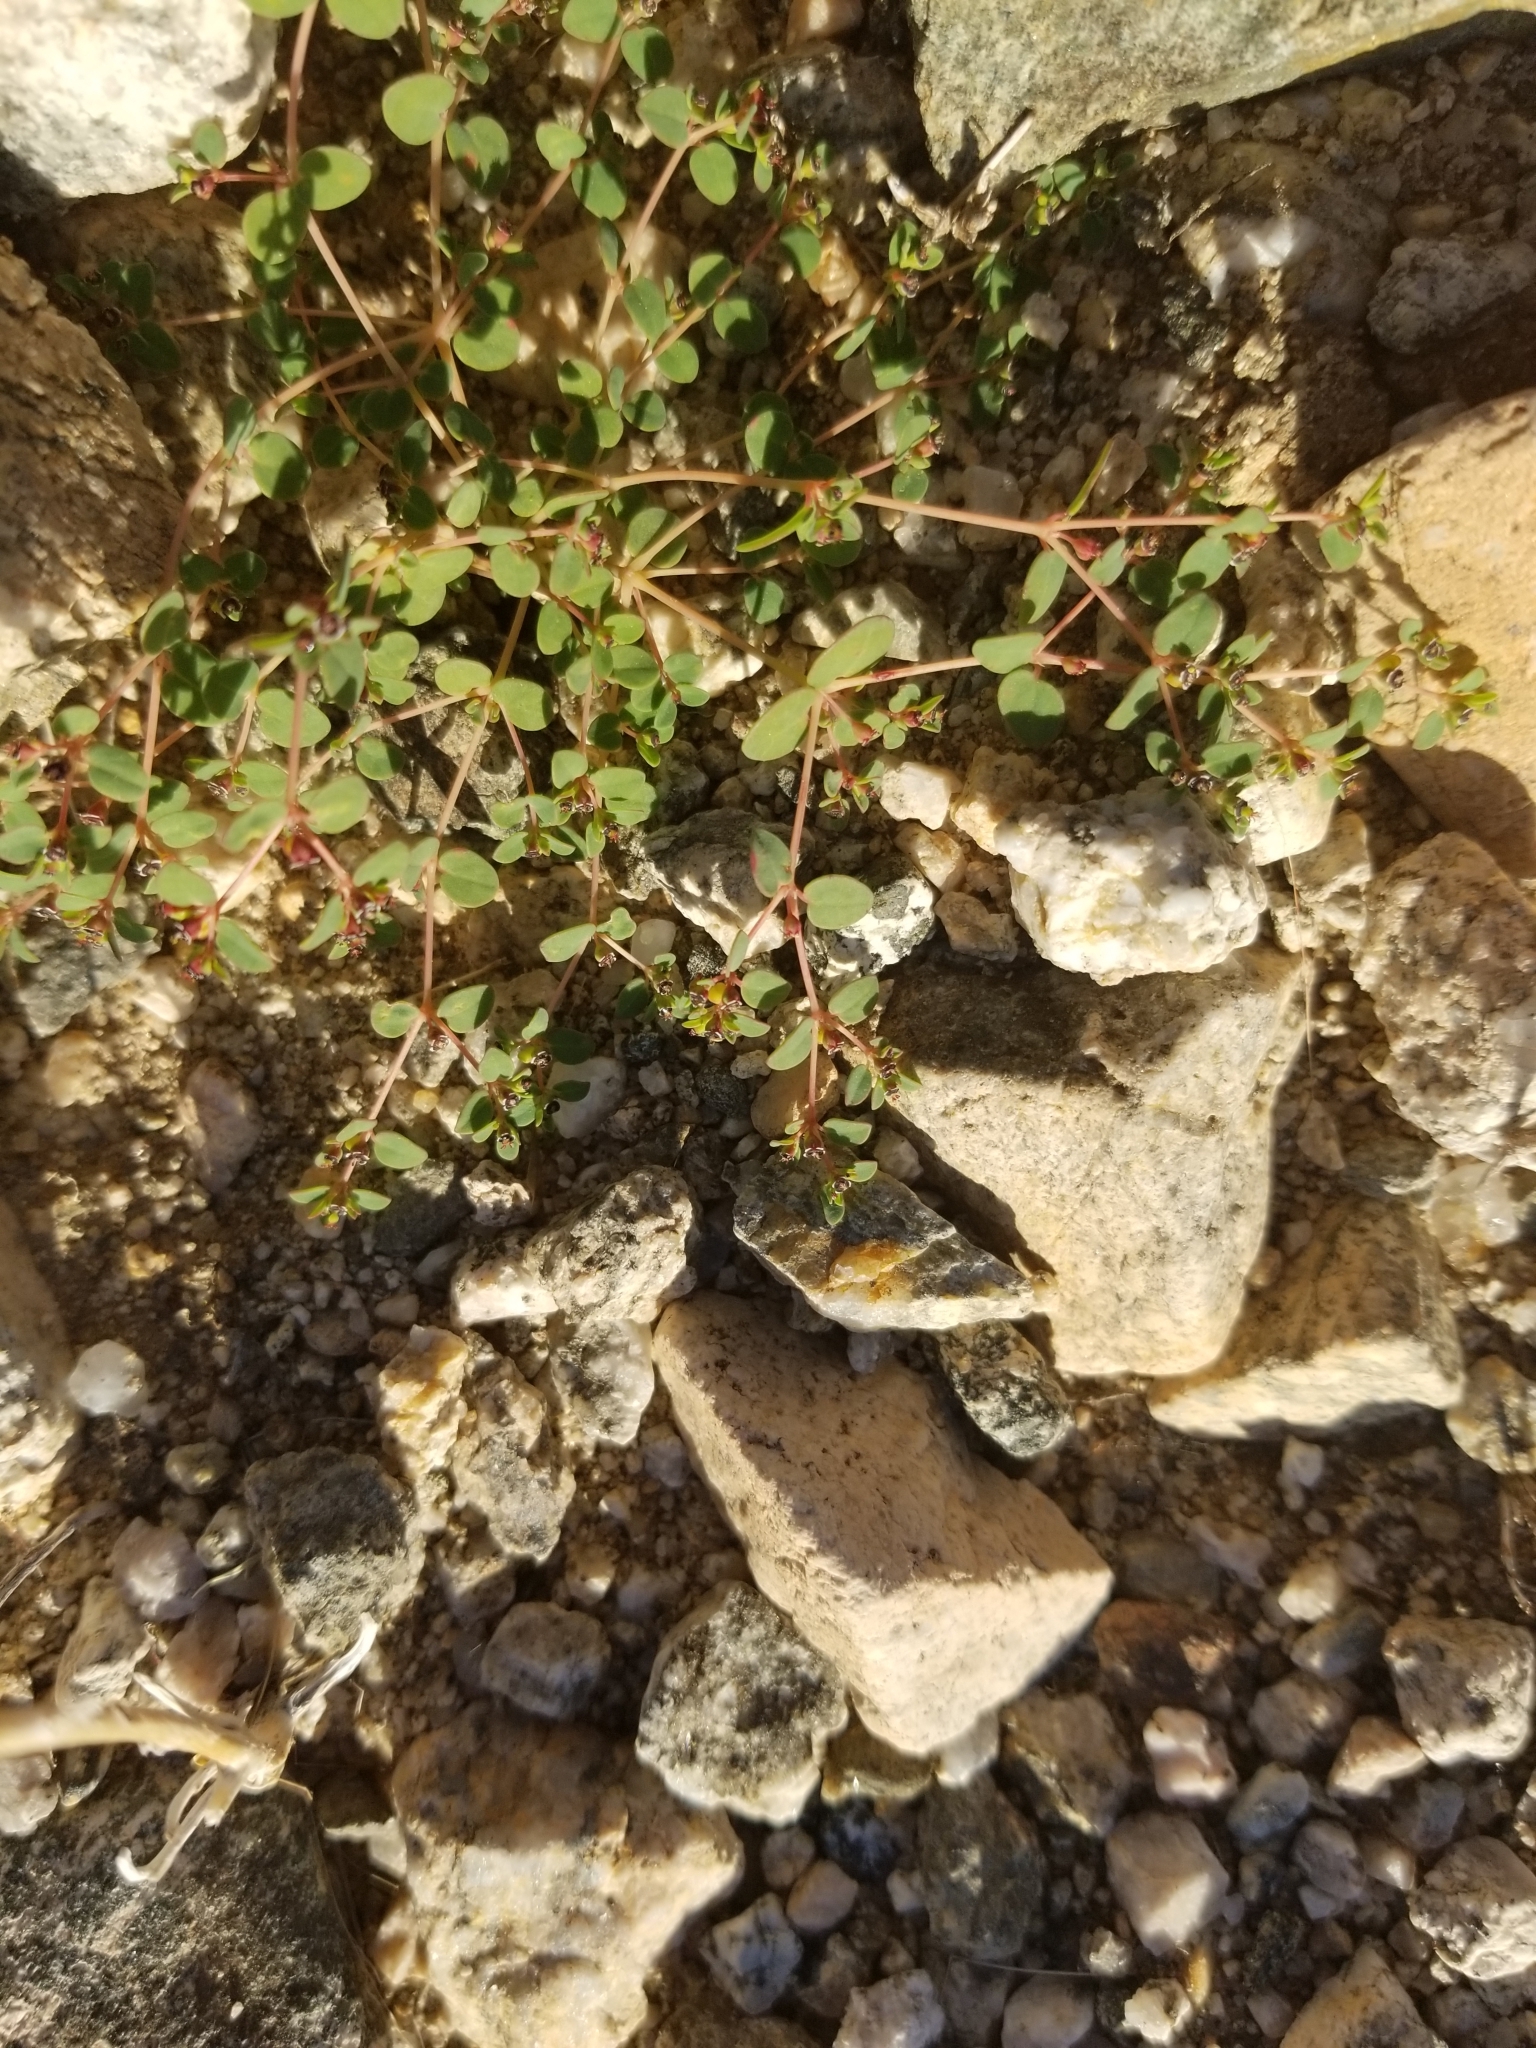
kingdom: Plantae
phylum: Tracheophyta
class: Magnoliopsida
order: Malpighiales
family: Euphorbiaceae
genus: Euphorbia
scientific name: Euphorbia polycarpa
